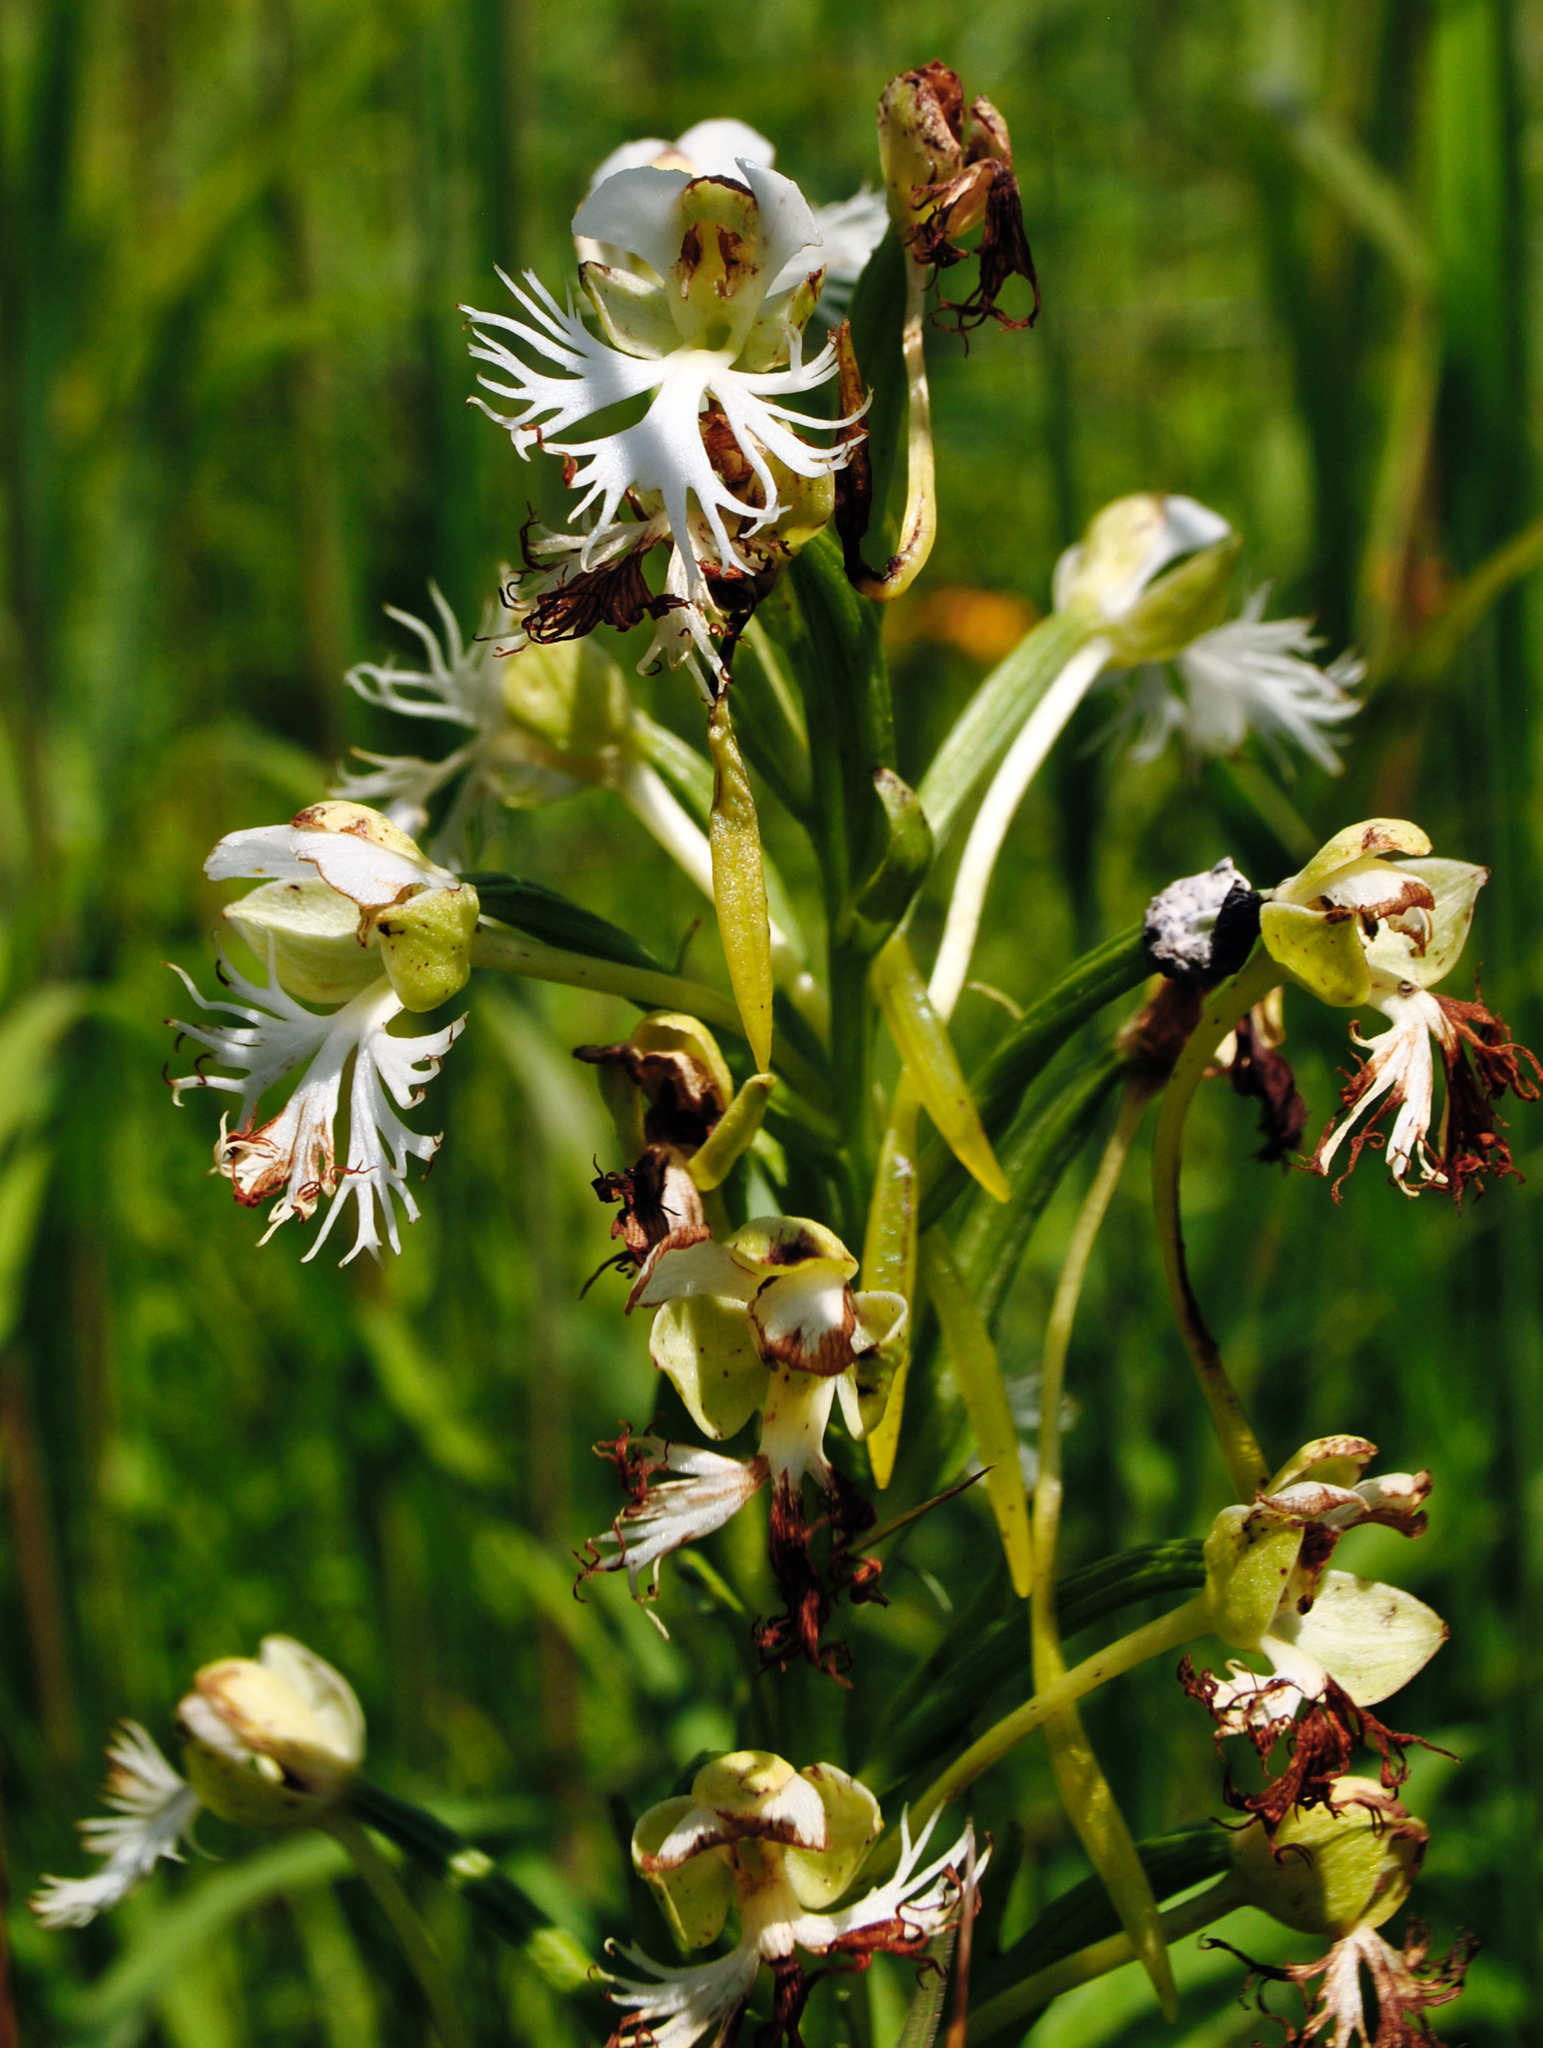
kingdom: Plantae
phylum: Tracheophyta
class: Liliopsida
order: Asparagales
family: Orchidaceae
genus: Platanthera
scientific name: Platanthera leucophaea
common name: Eastern prairie white-fringed orchid
